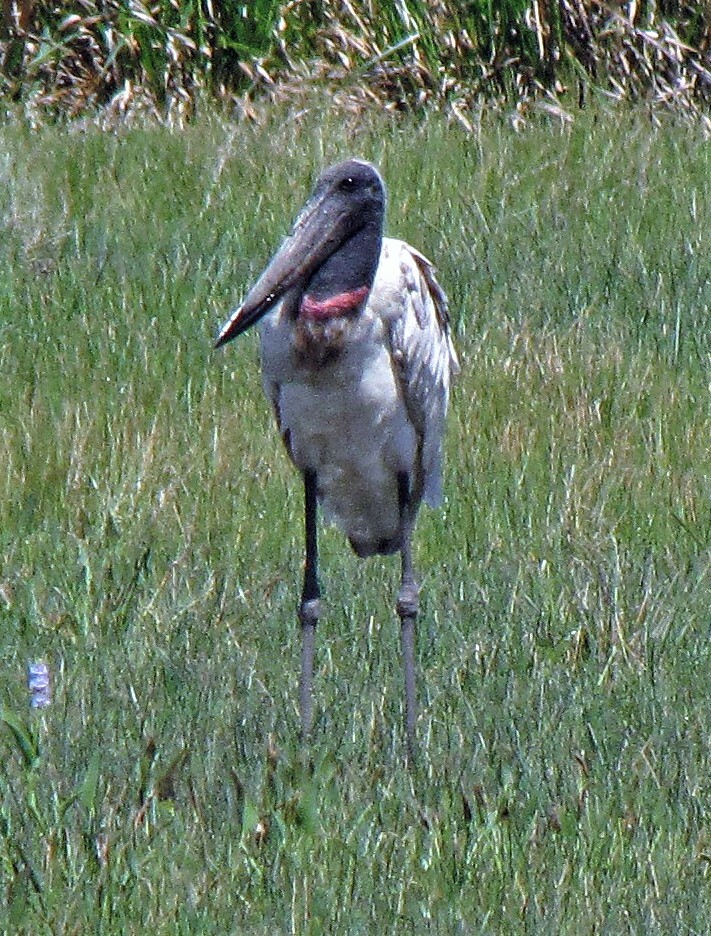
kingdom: Animalia
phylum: Chordata
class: Aves
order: Ciconiiformes
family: Ciconiidae
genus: Jabiru
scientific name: Jabiru mycteria
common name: Jabiru
